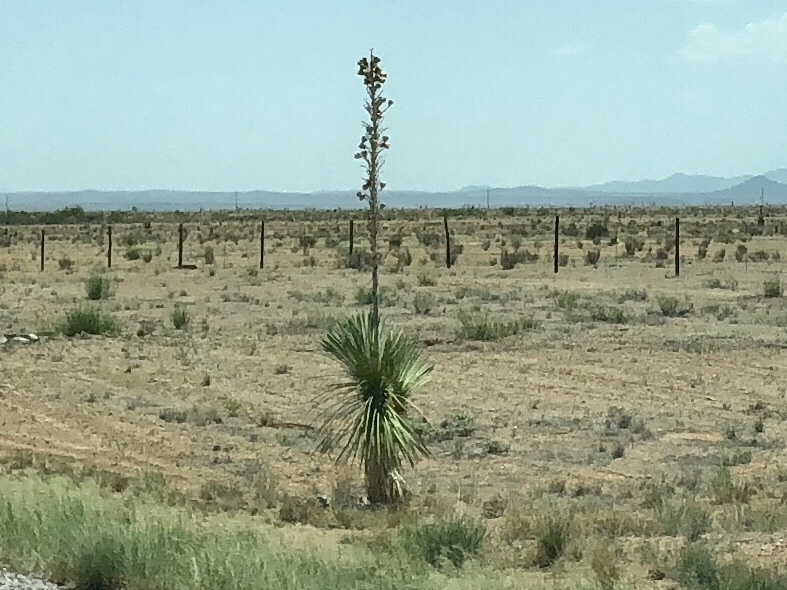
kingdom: Plantae
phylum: Tracheophyta
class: Liliopsida
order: Asparagales
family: Asparagaceae
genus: Yucca
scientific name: Yucca elata
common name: Palmella
